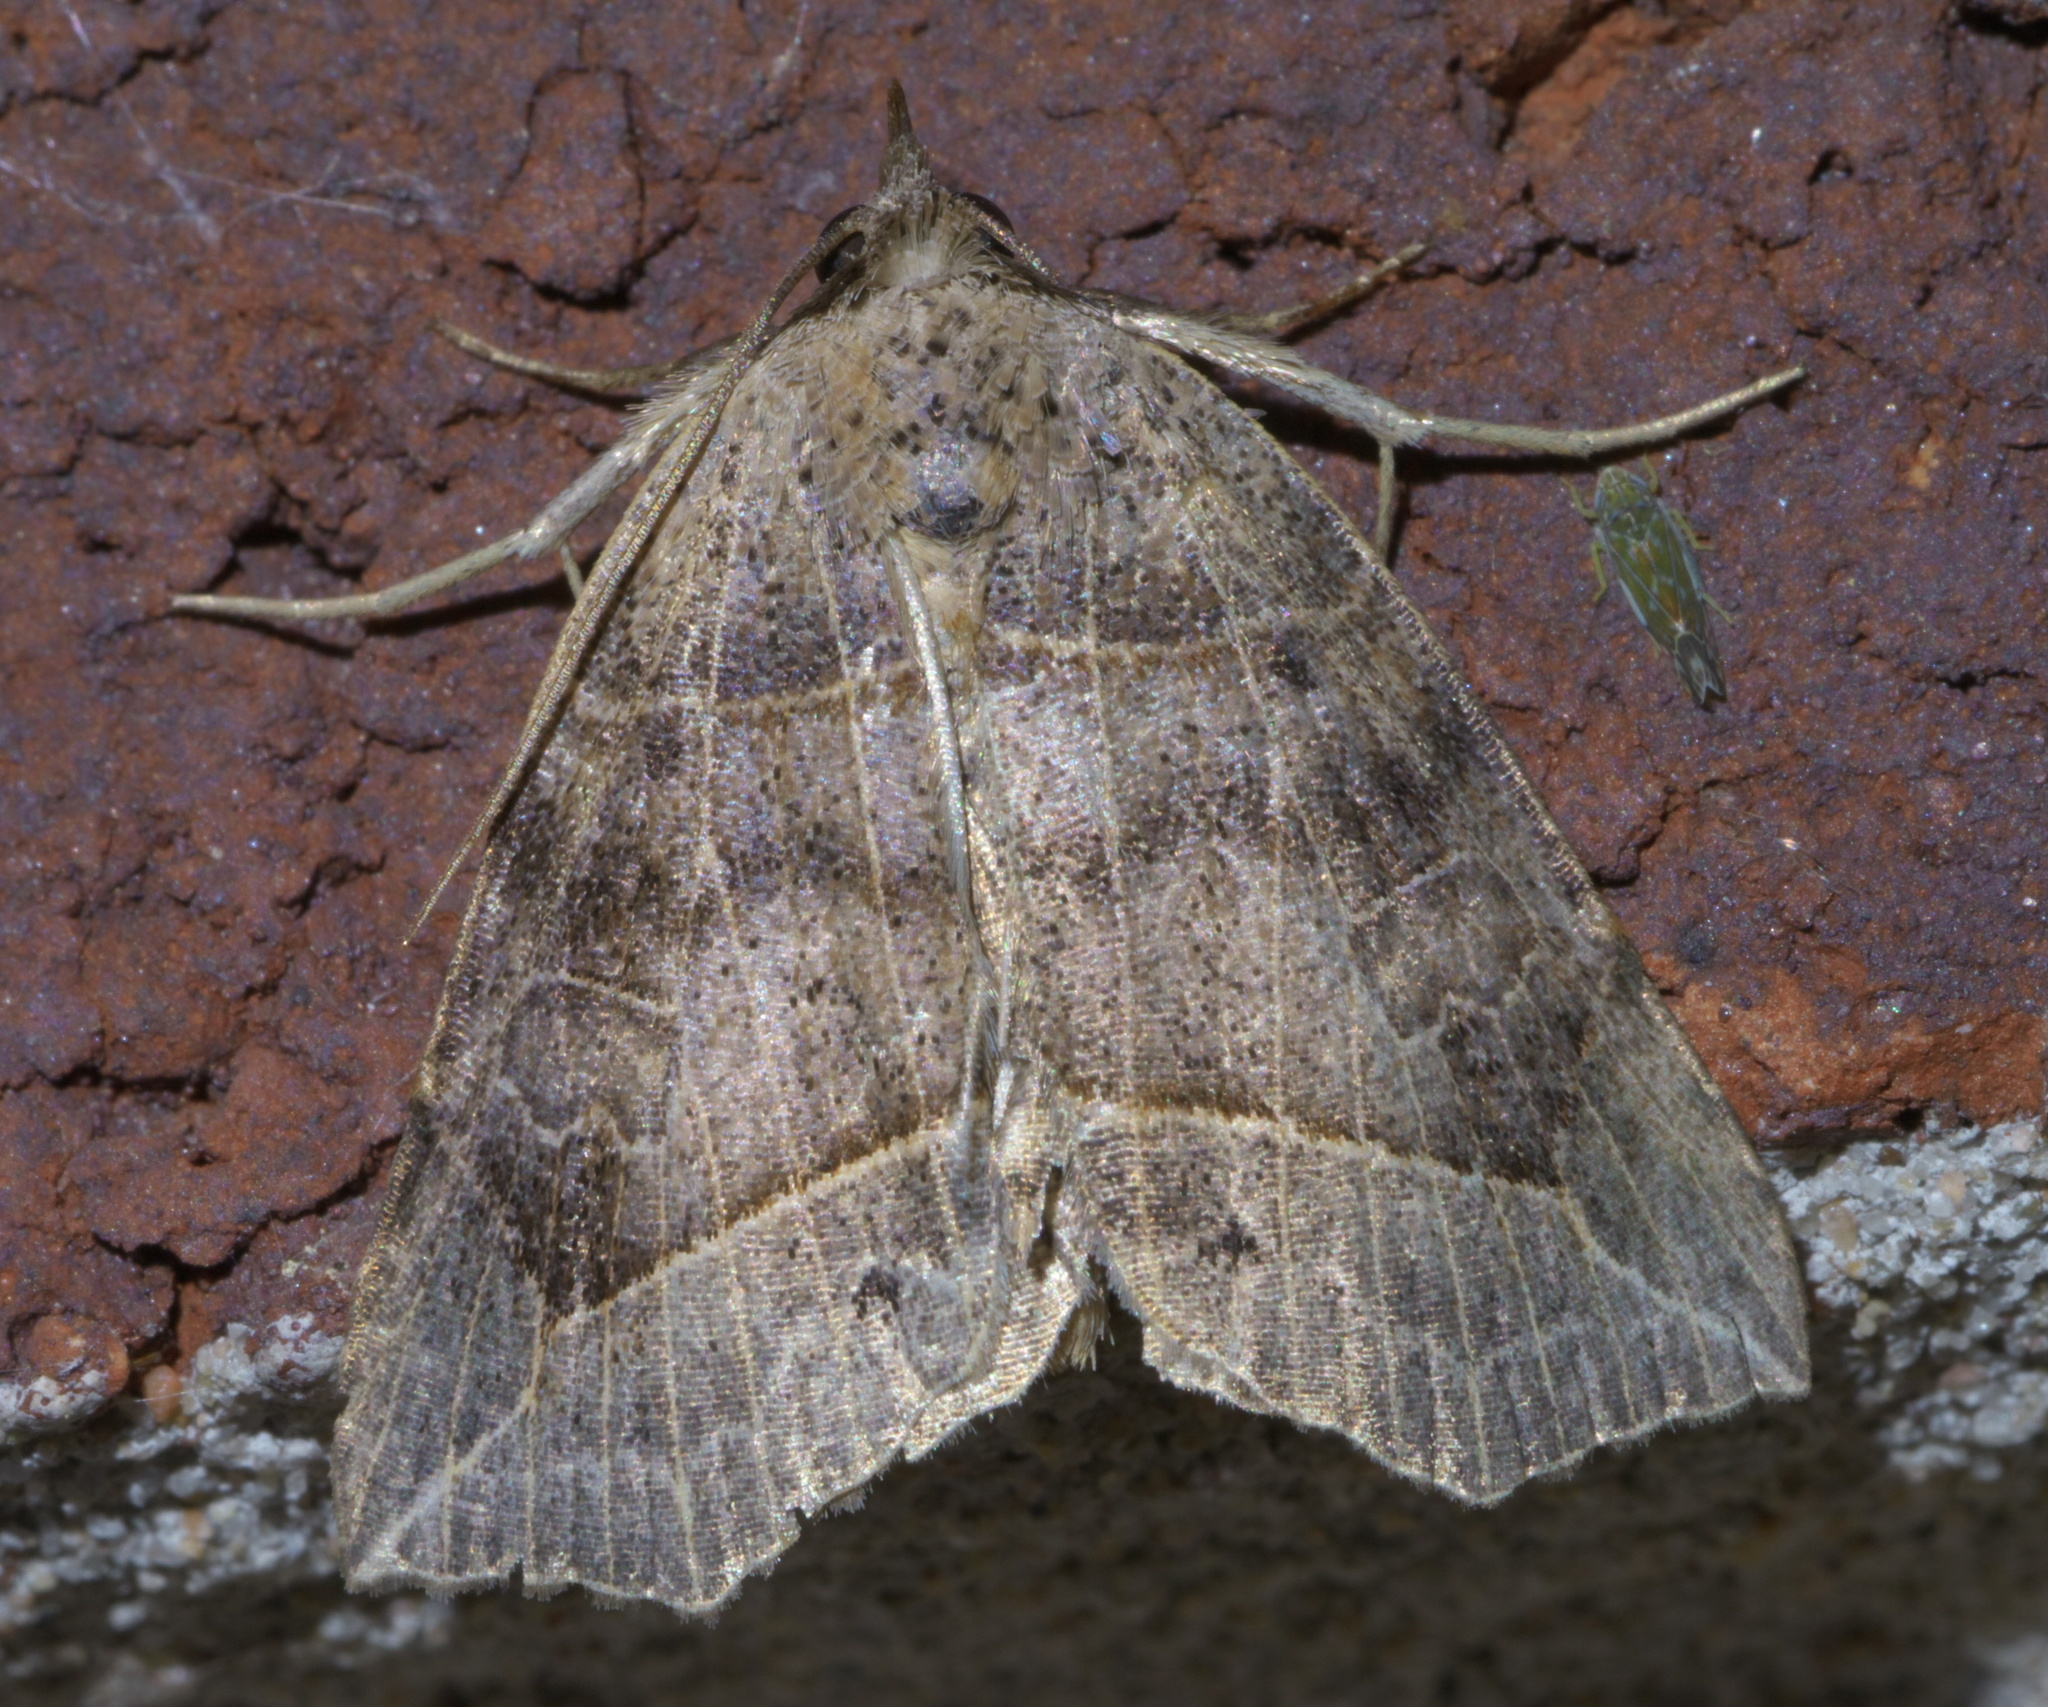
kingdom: Animalia
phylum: Arthropoda
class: Insecta
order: Lepidoptera
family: Erebidae
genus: Isogona
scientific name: Isogona tenuis
